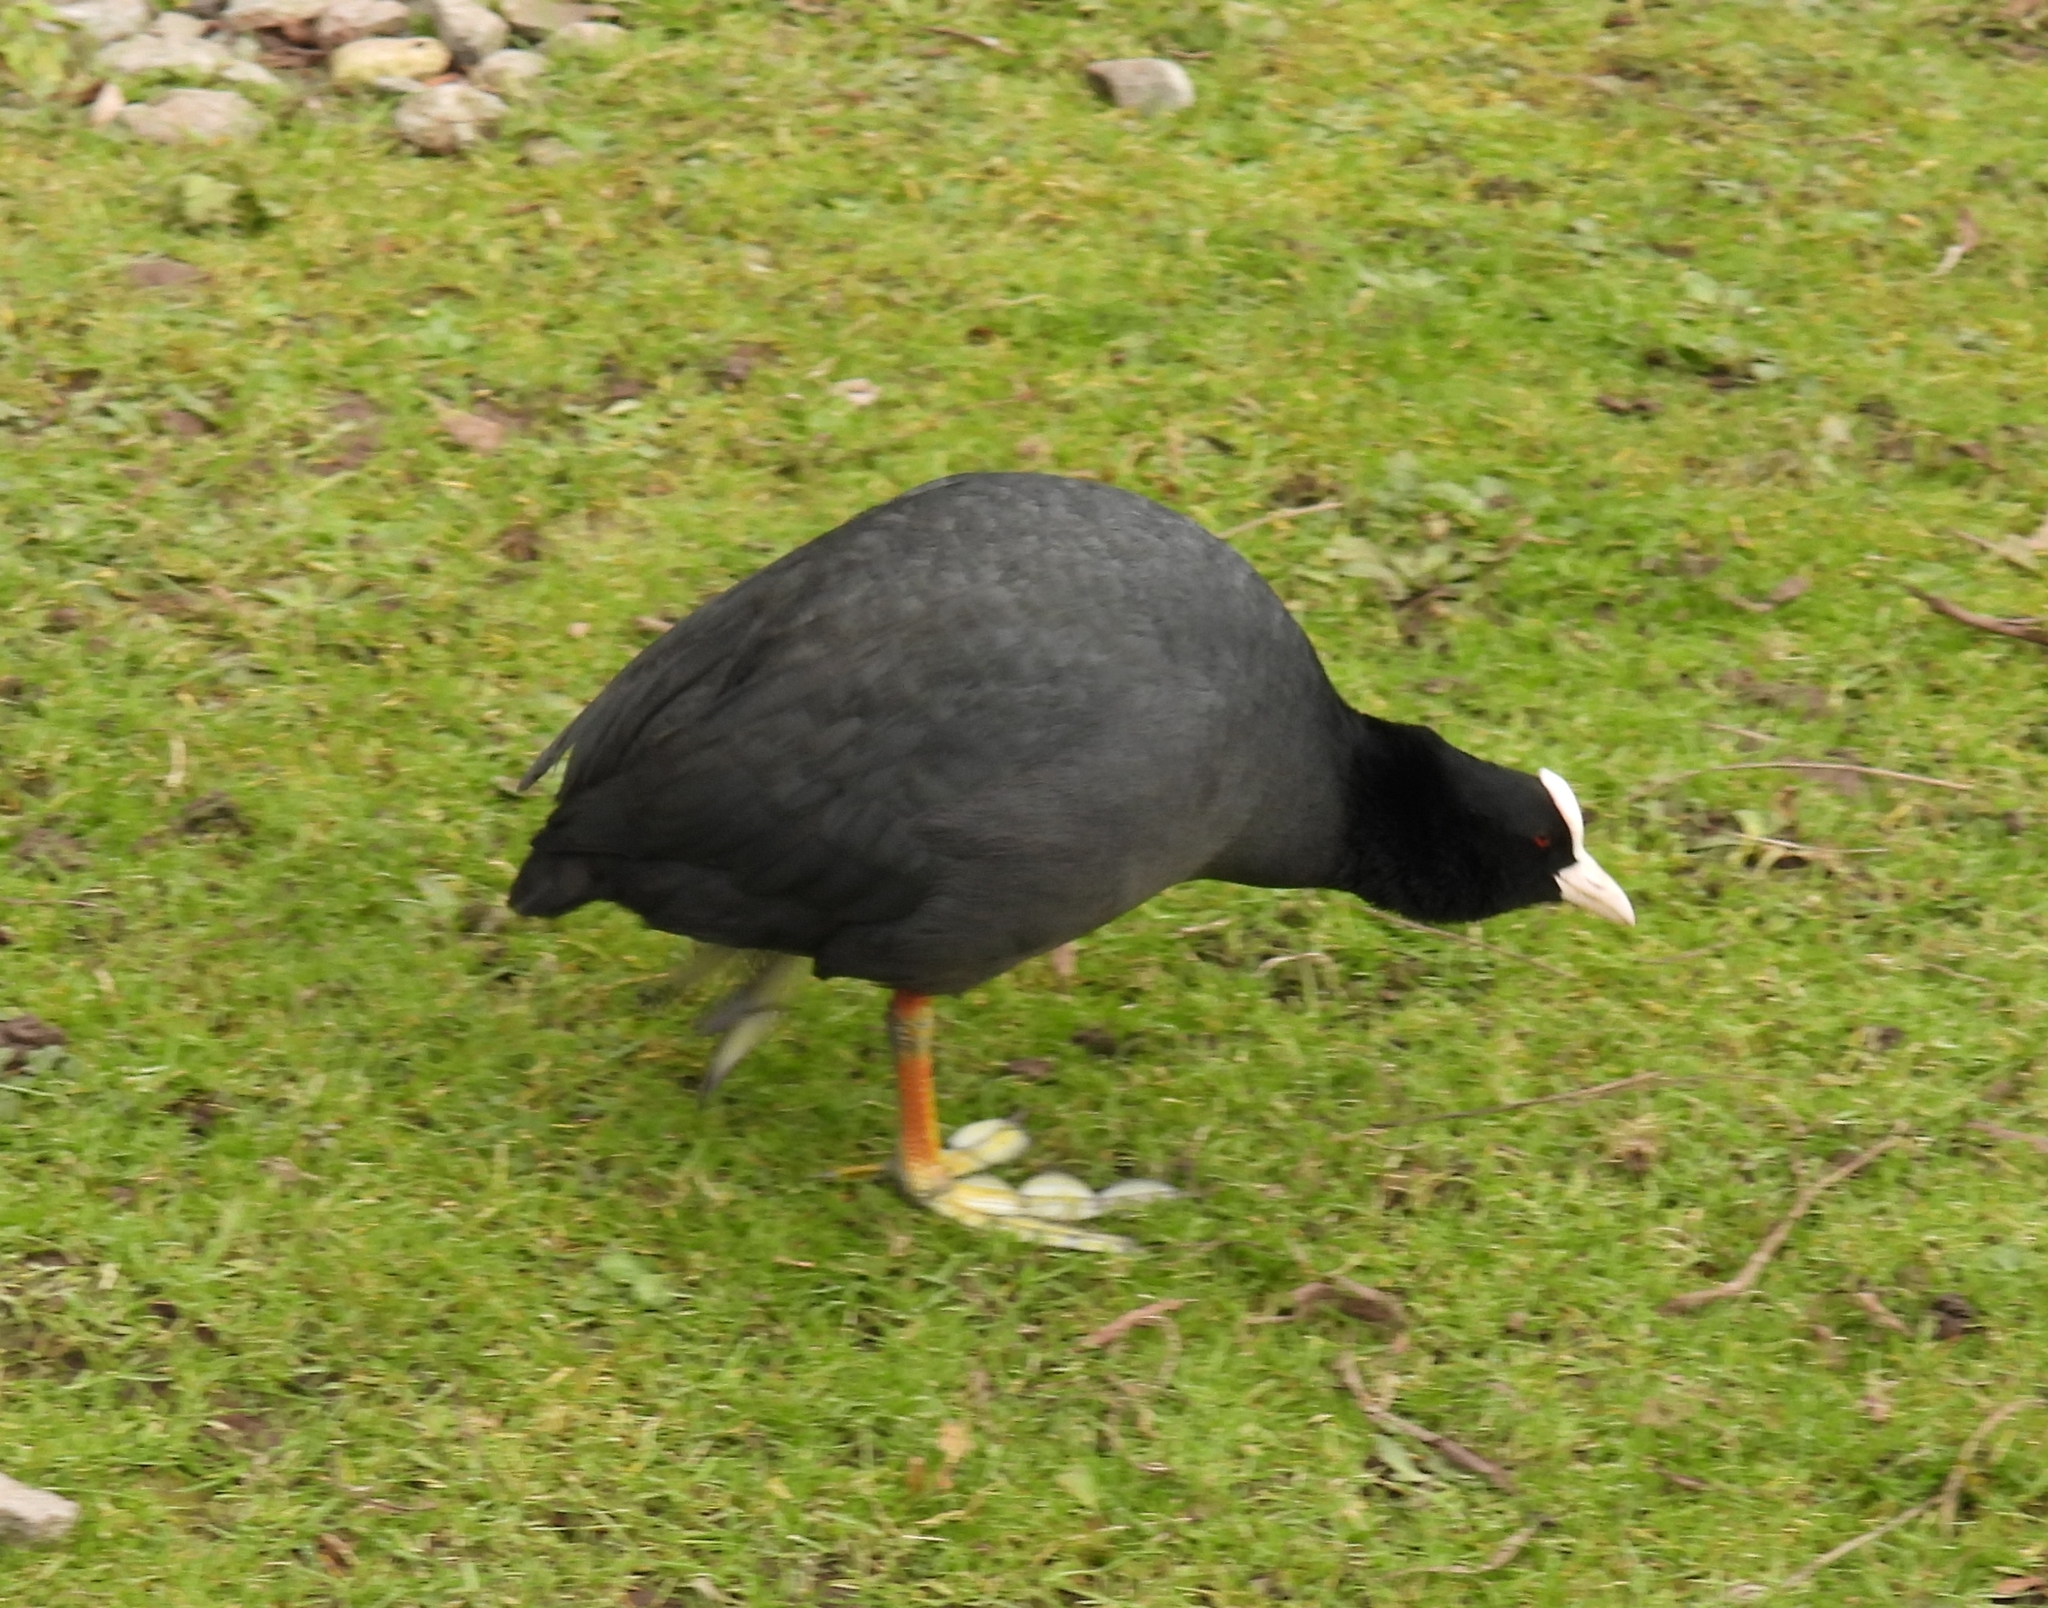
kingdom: Animalia
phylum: Chordata
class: Aves
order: Gruiformes
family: Rallidae
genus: Fulica
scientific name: Fulica atra
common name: Eurasian coot
